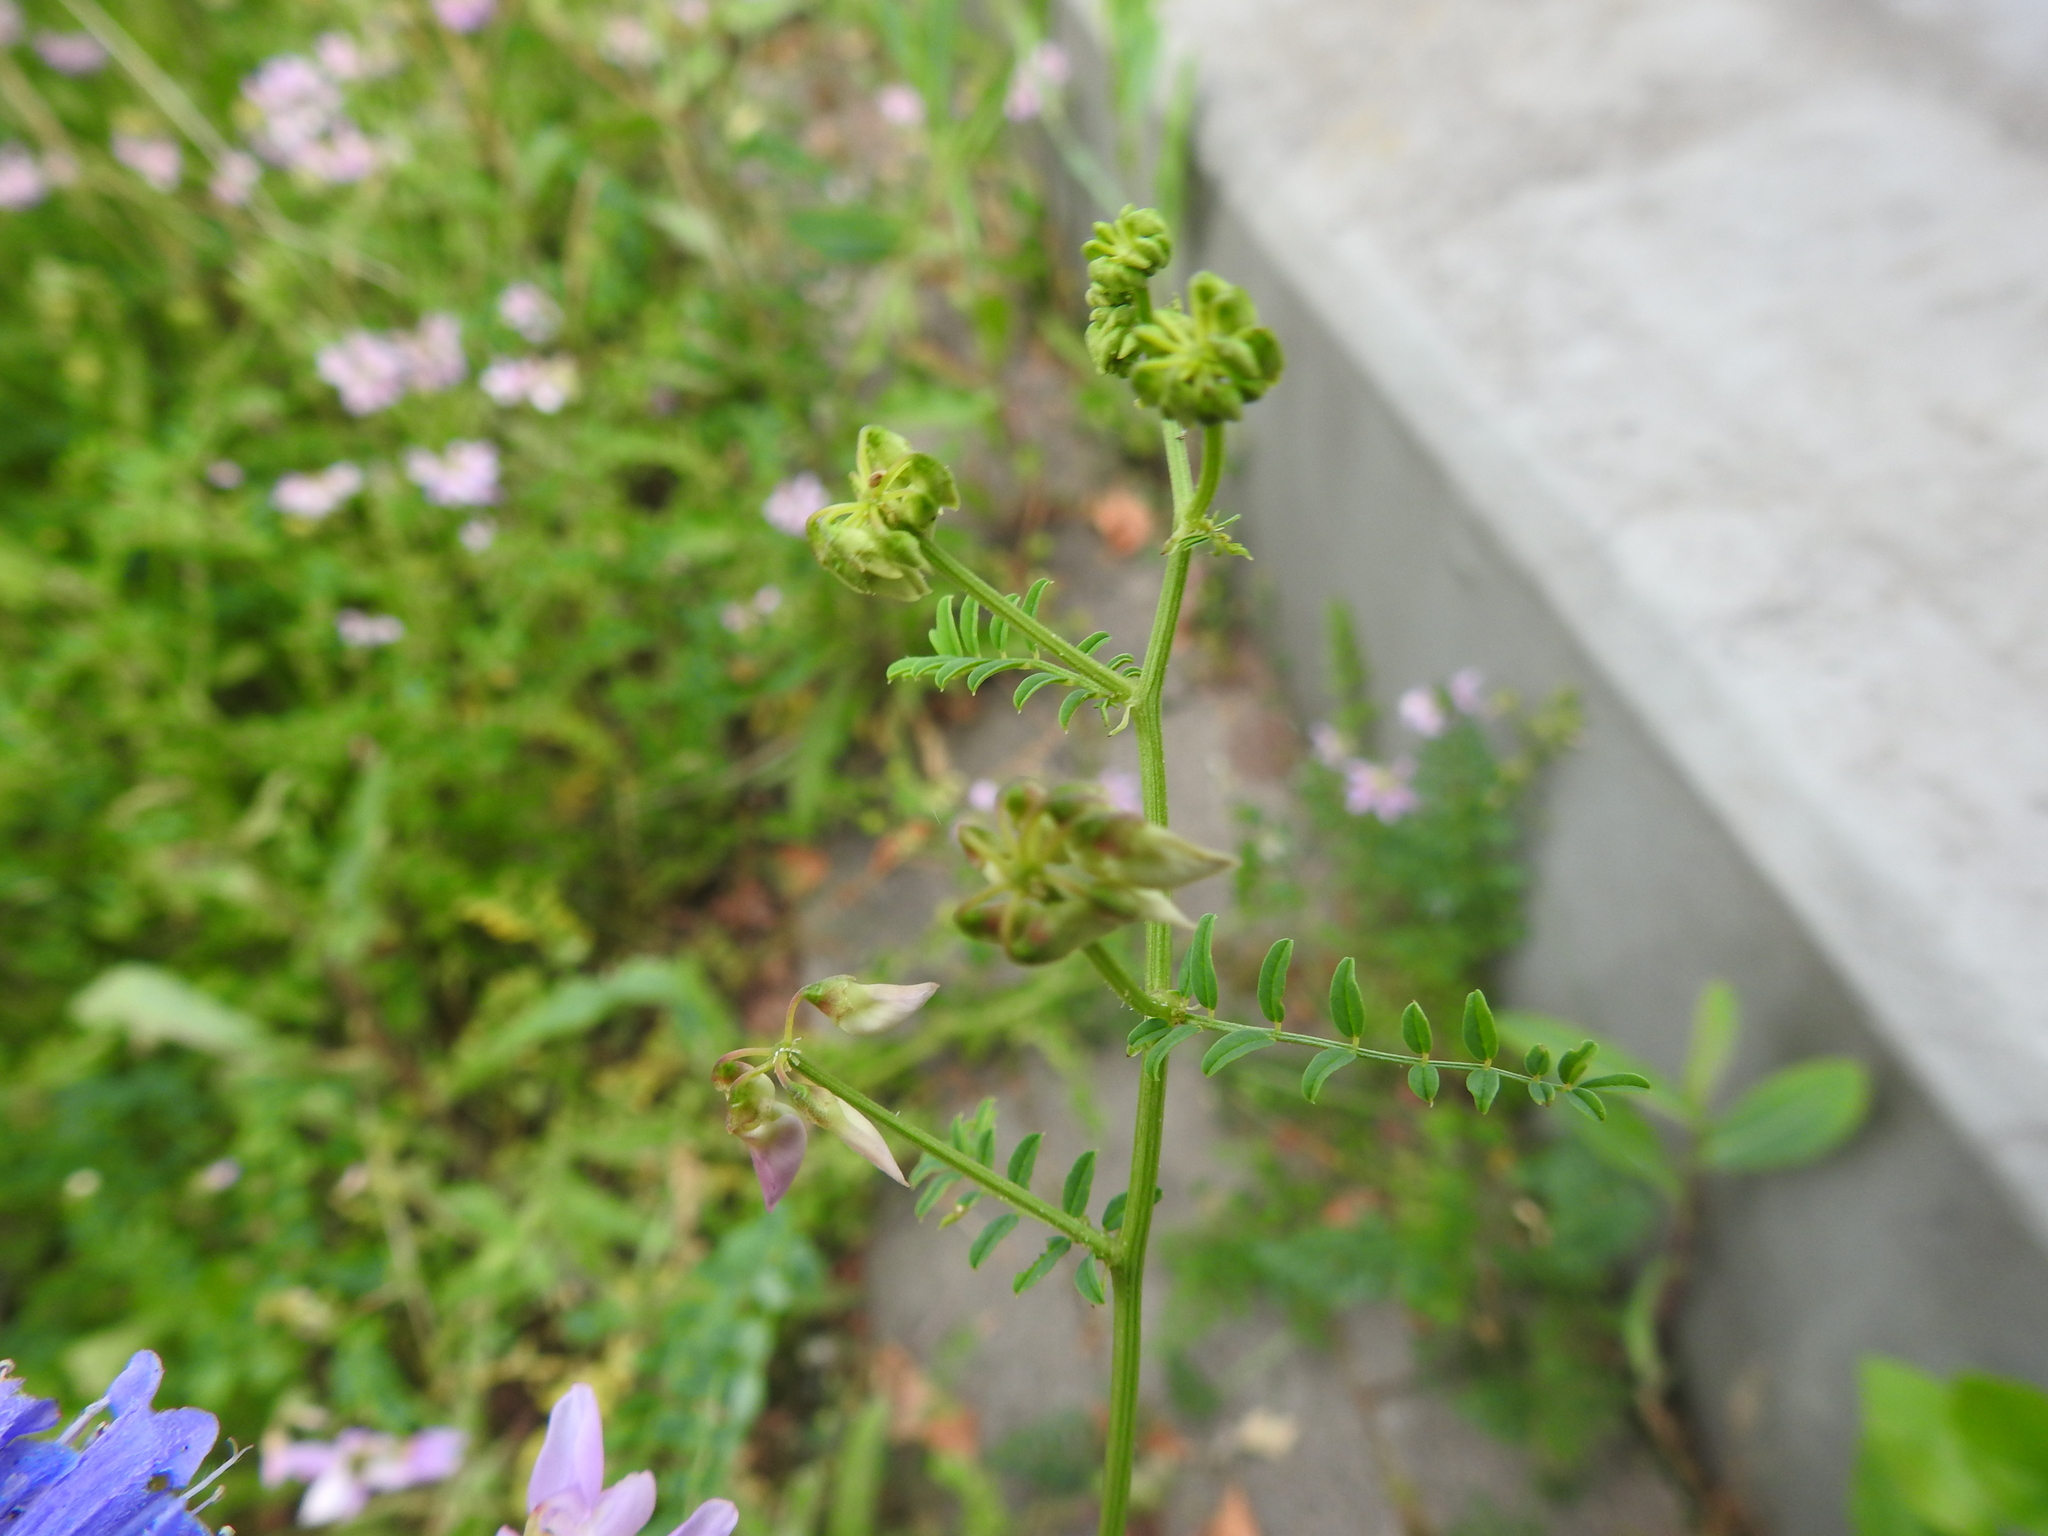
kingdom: Plantae
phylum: Tracheophyta
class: Magnoliopsida
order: Fabales
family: Fabaceae
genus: Coronilla
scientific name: Coronilla varia
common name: Crownvetch
